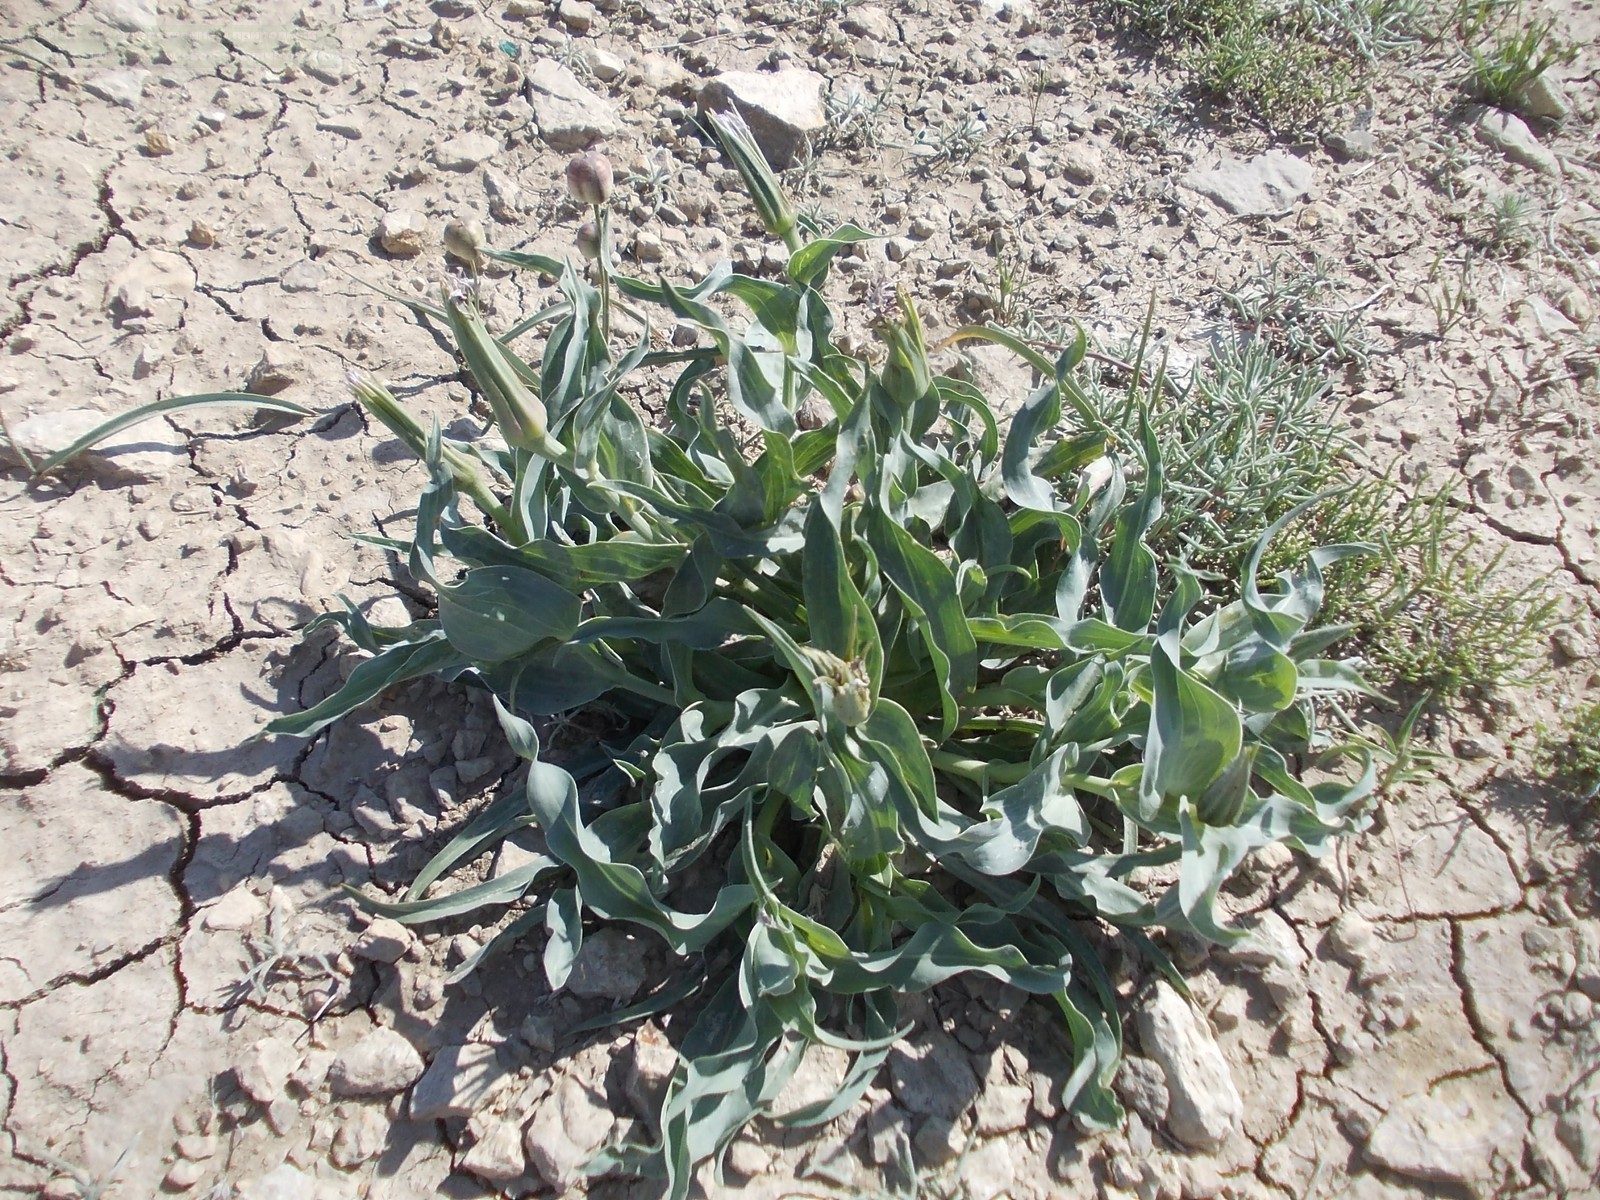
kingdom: Plantae
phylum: Tracheophyta
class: Magnoliopsida
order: Asterales
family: Asteraceae
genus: Tragopogon
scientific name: Tragopogon marginifolius
